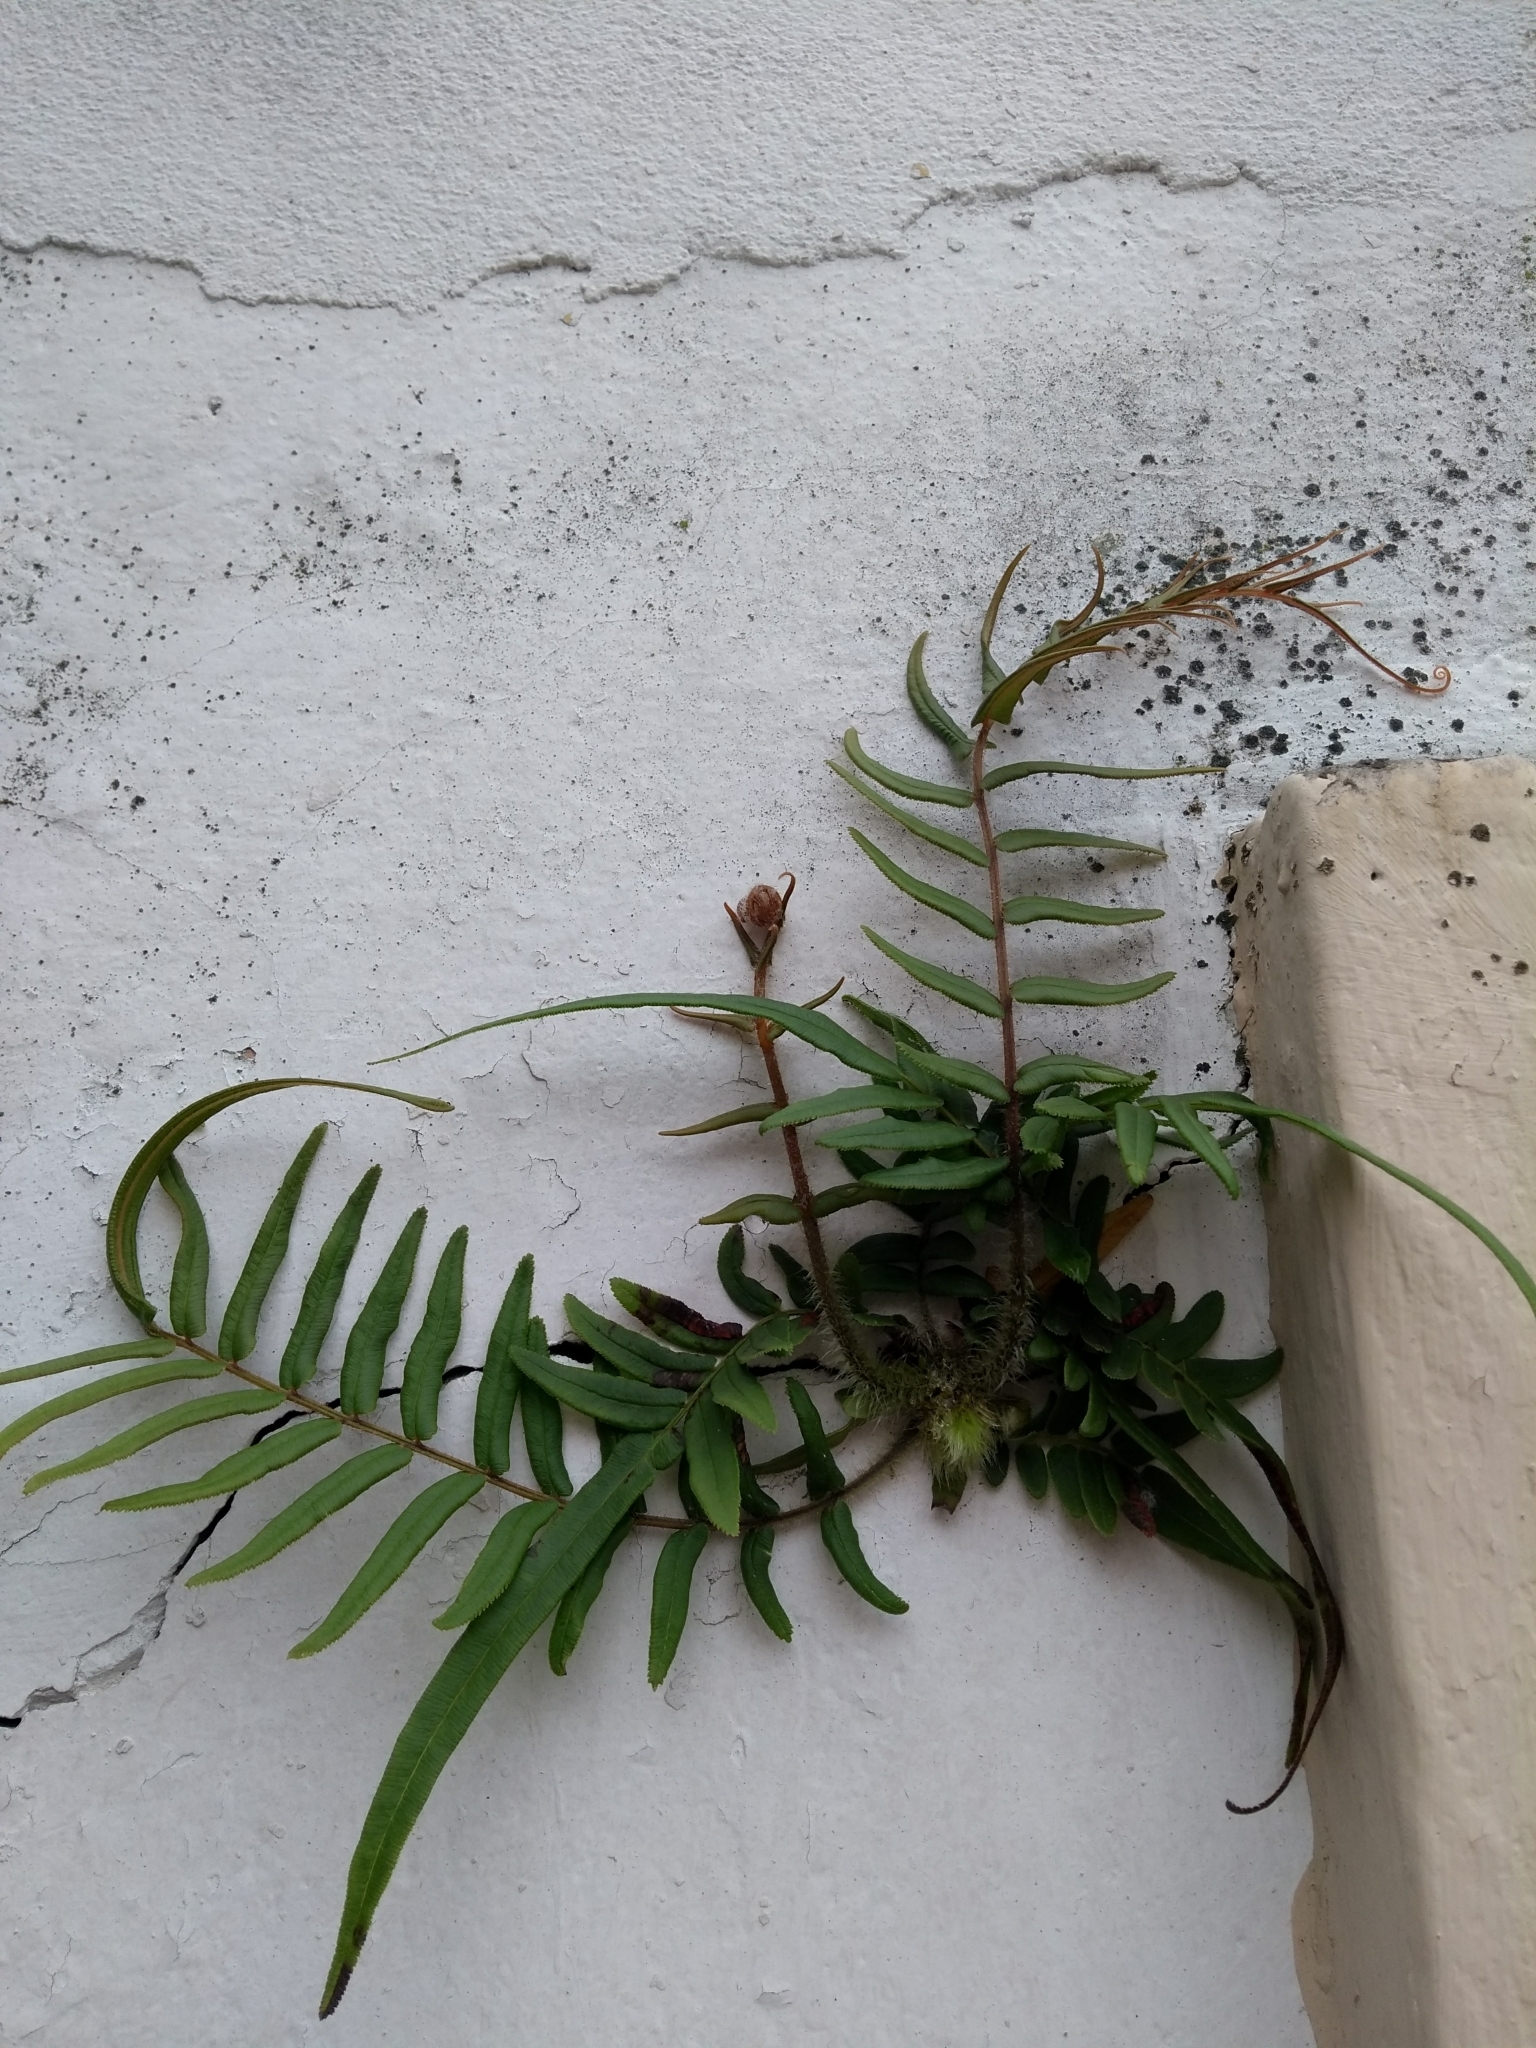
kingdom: Plantae
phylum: Tracheophyta
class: Polypodiopsida
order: Polypodiales
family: Pteridaceae
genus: Pteris
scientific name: Pteris vittata
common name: Ladder brake
